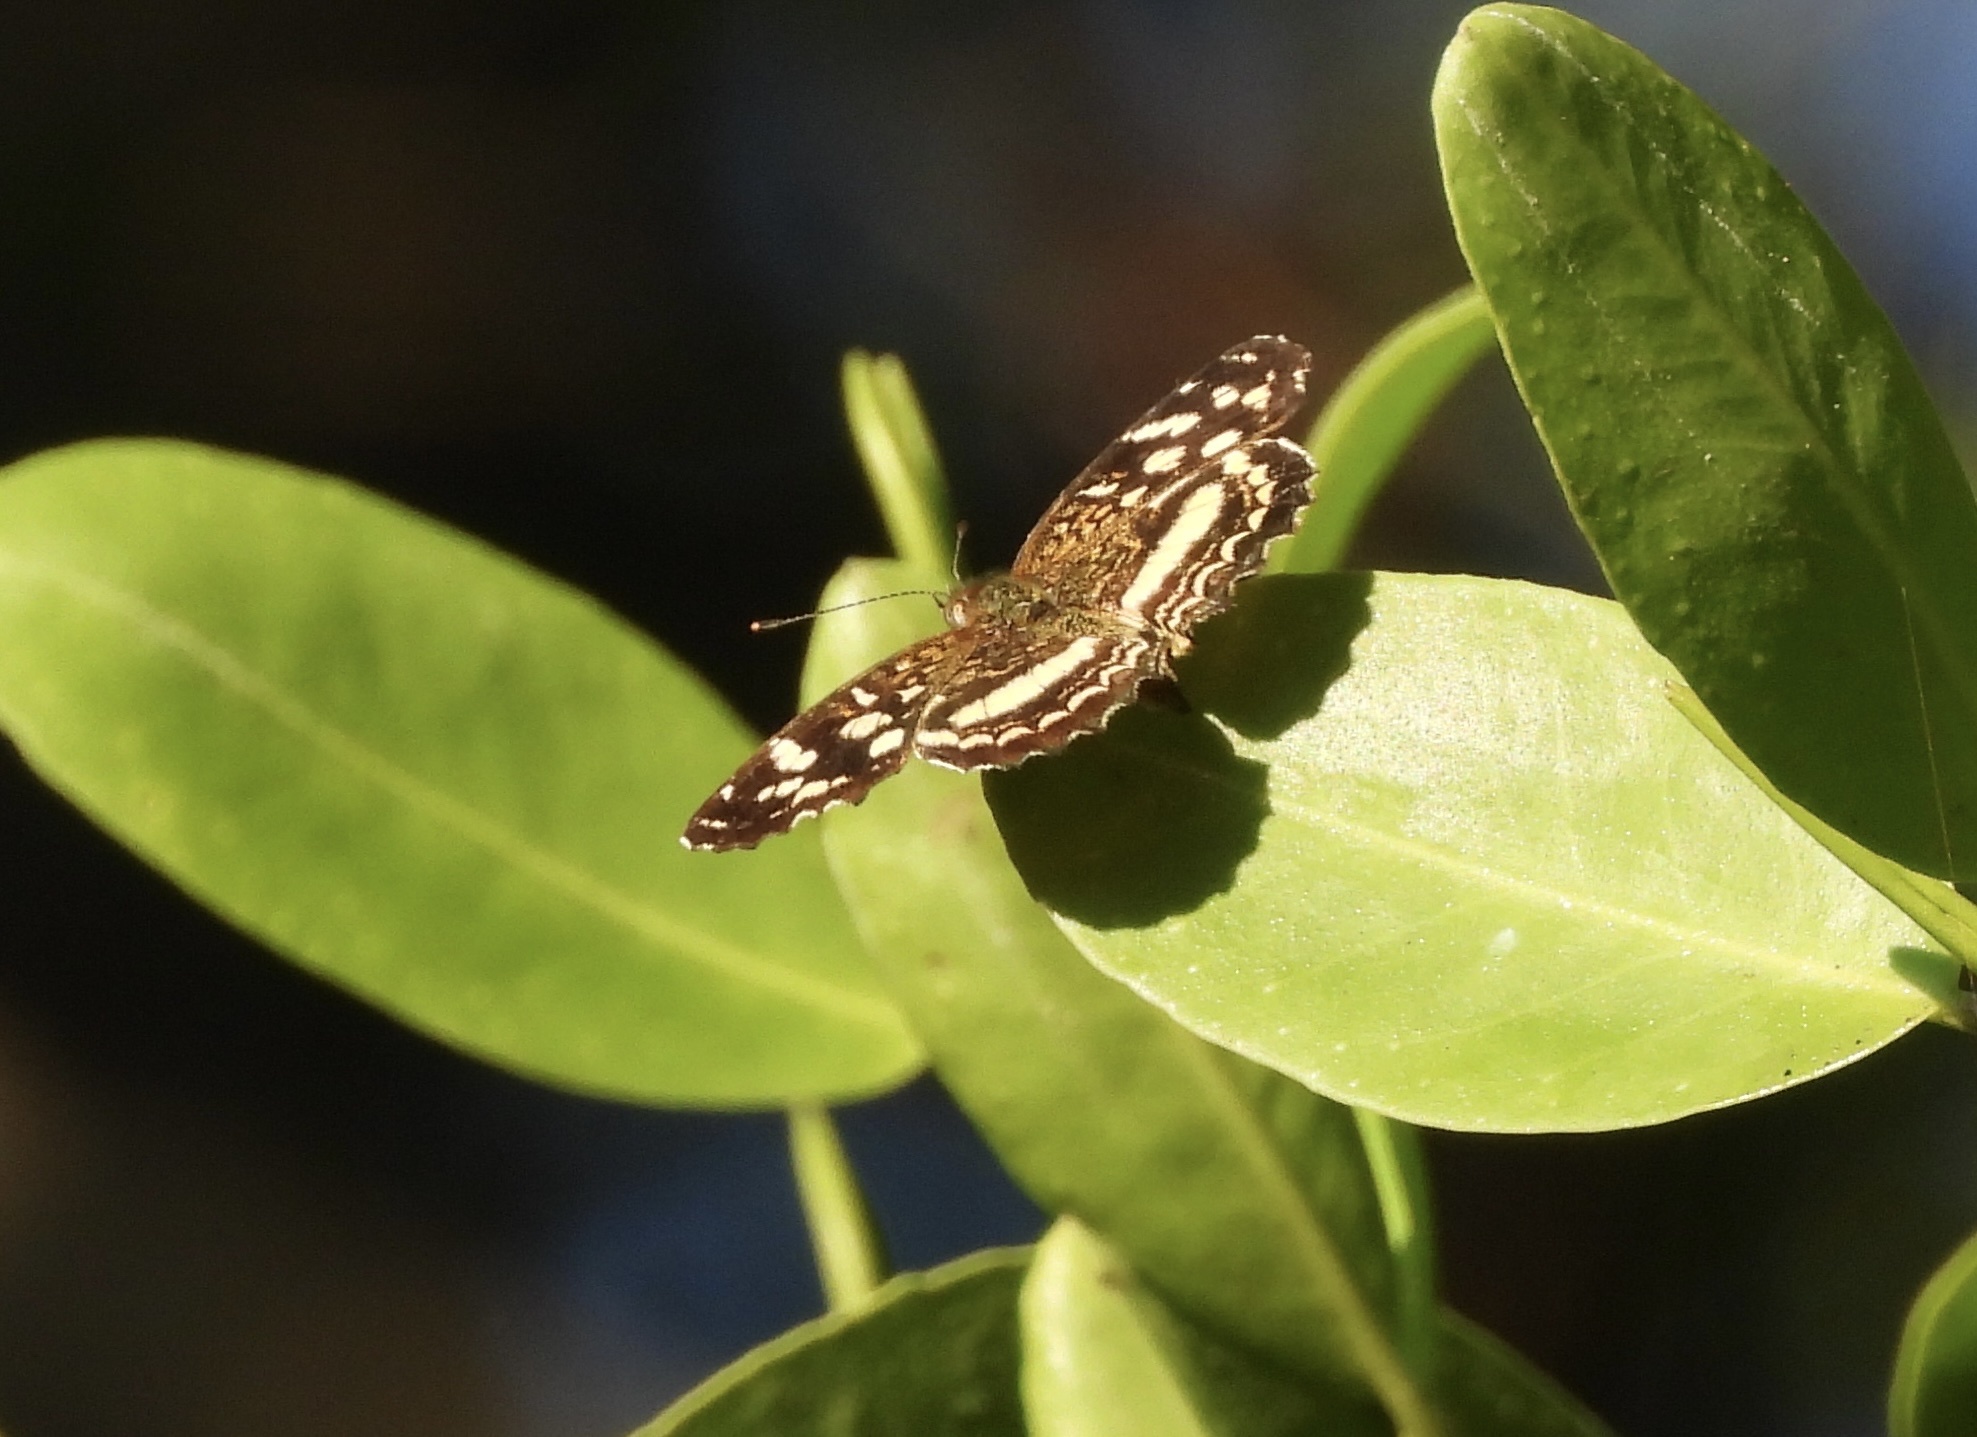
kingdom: Animalia
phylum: Arthropoda
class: Insecta
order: Lepidoptera
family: Nymphalidae
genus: Anthanassa
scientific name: Anthanassa tulcis
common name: Pale-banded crescent
